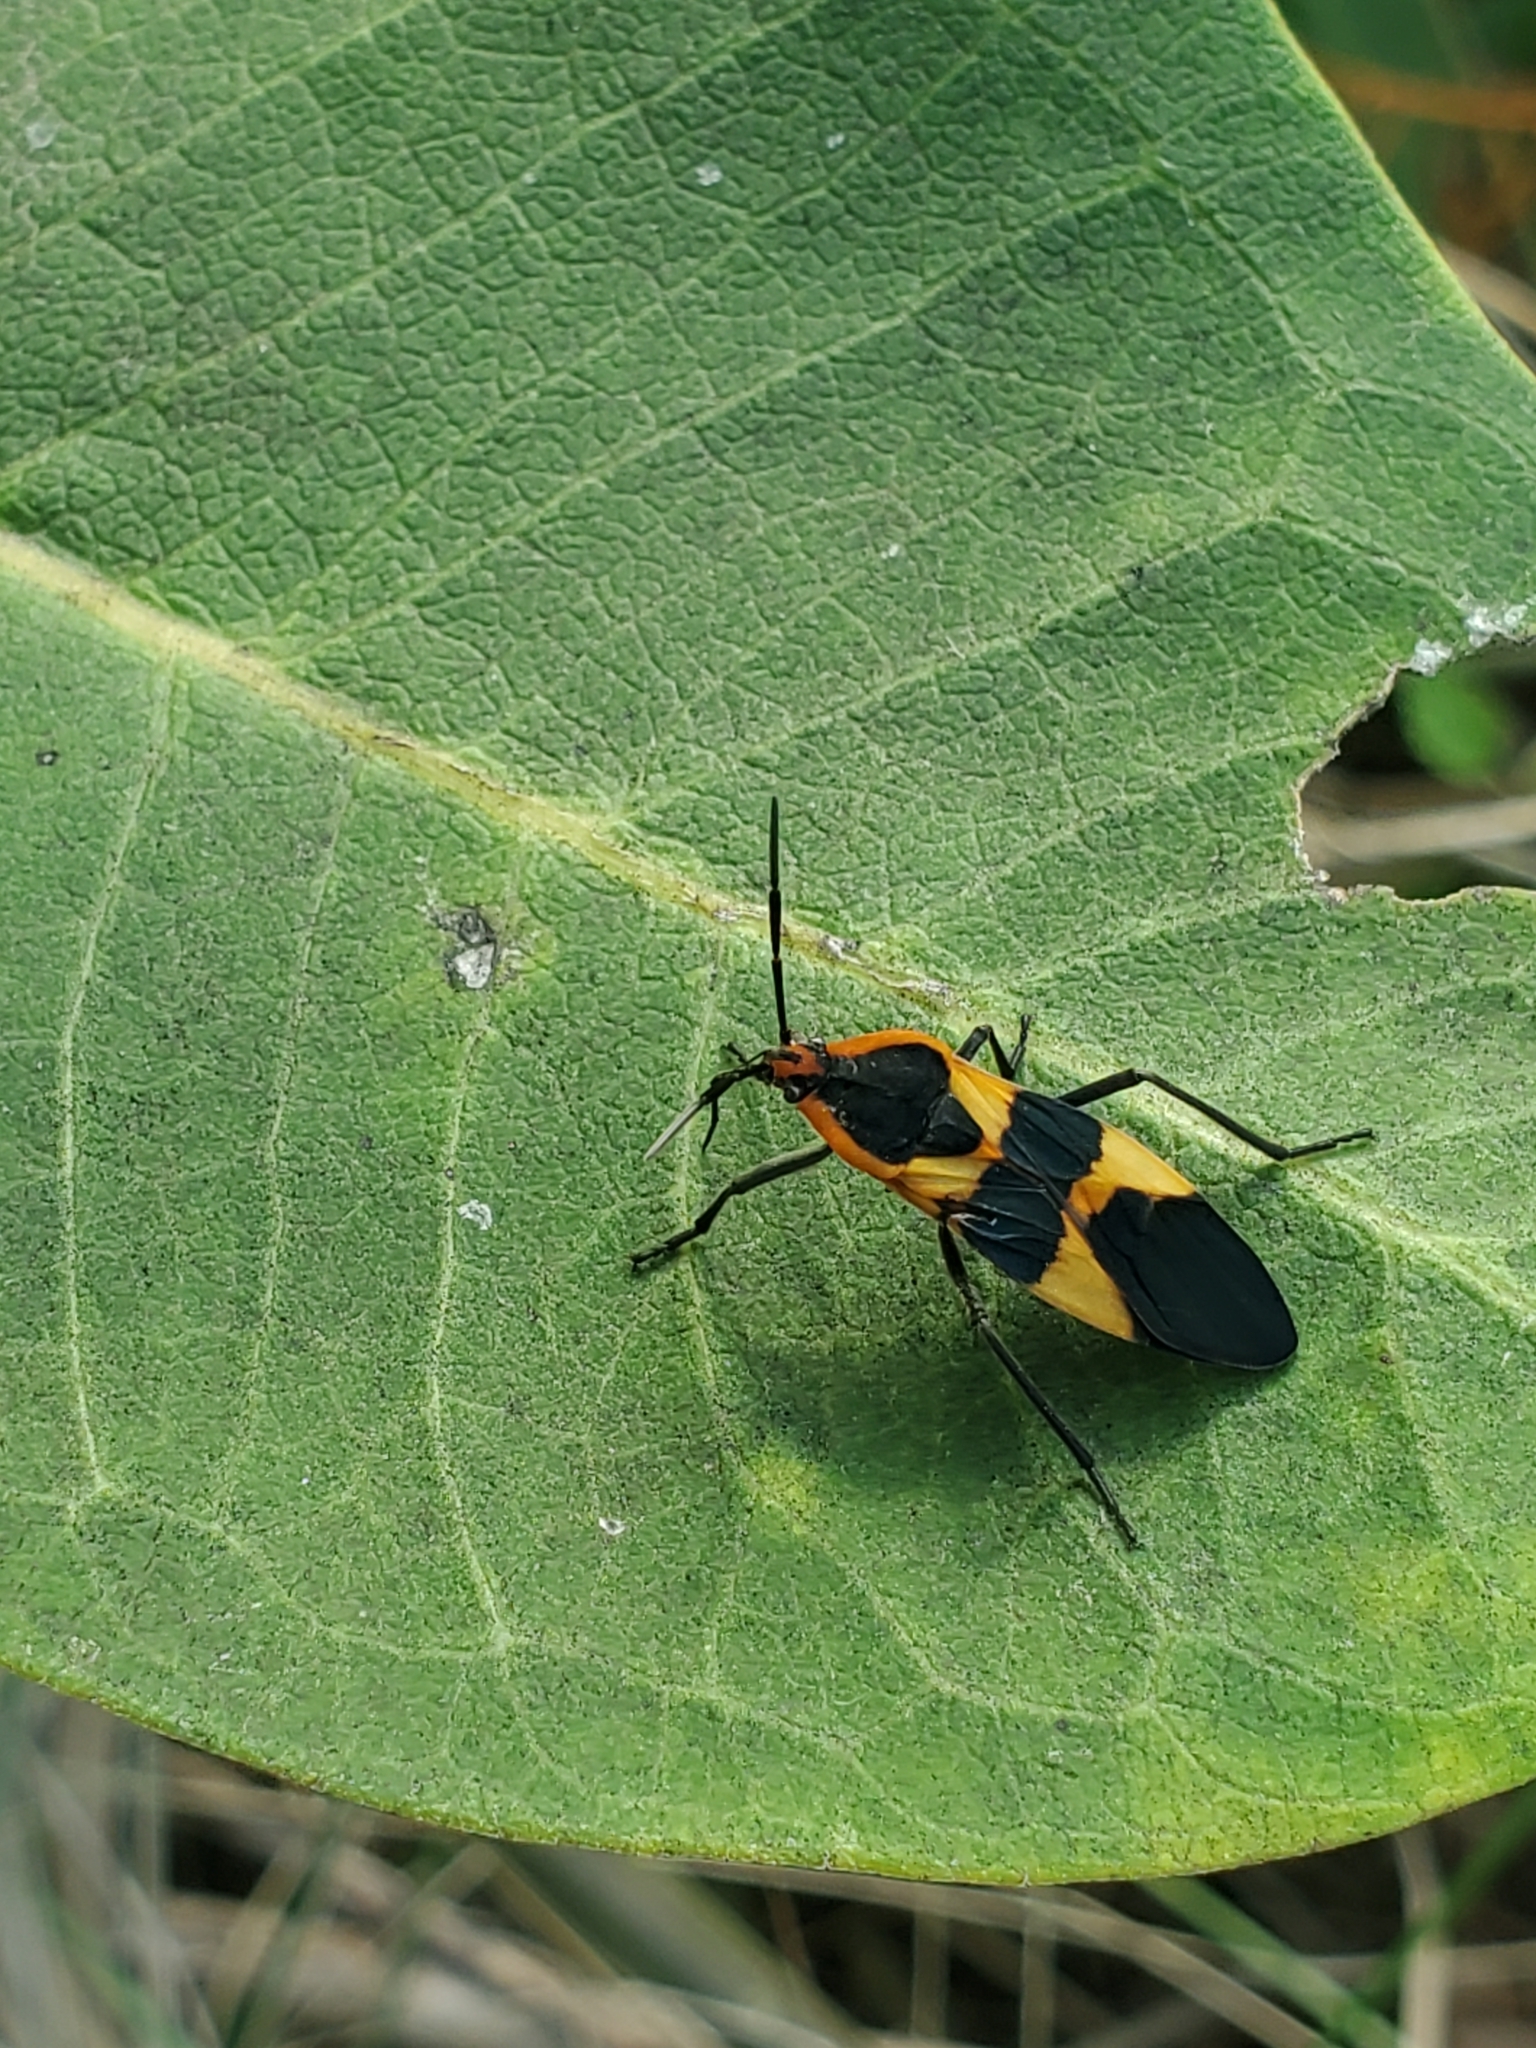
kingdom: Animalia
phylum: Arthropoda
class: Insecta
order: Hemiptera
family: Lygaeidae
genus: Oncopeltus
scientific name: Oncopeltus fasciatus
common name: Large milkweed bug
